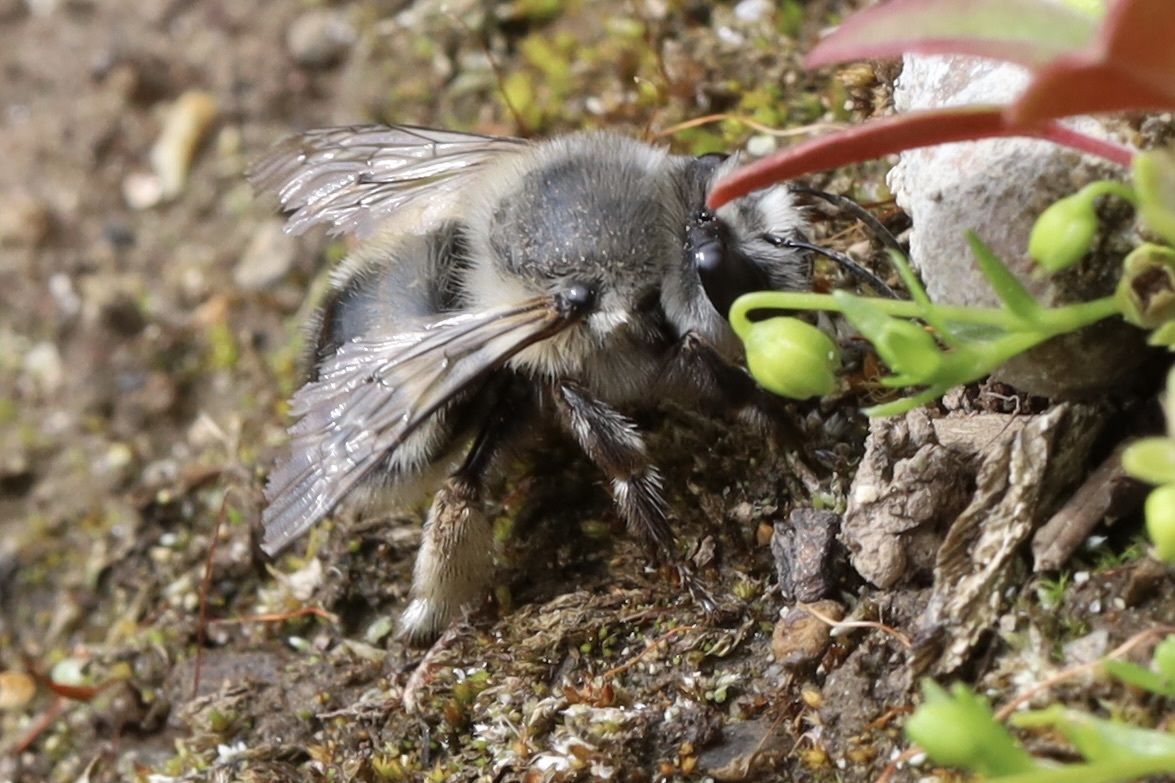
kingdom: Animalia
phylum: Arthropoda
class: Insecta
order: Hymenoptera
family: Apidae
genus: Anthophora
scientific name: Anthophora pacifica
